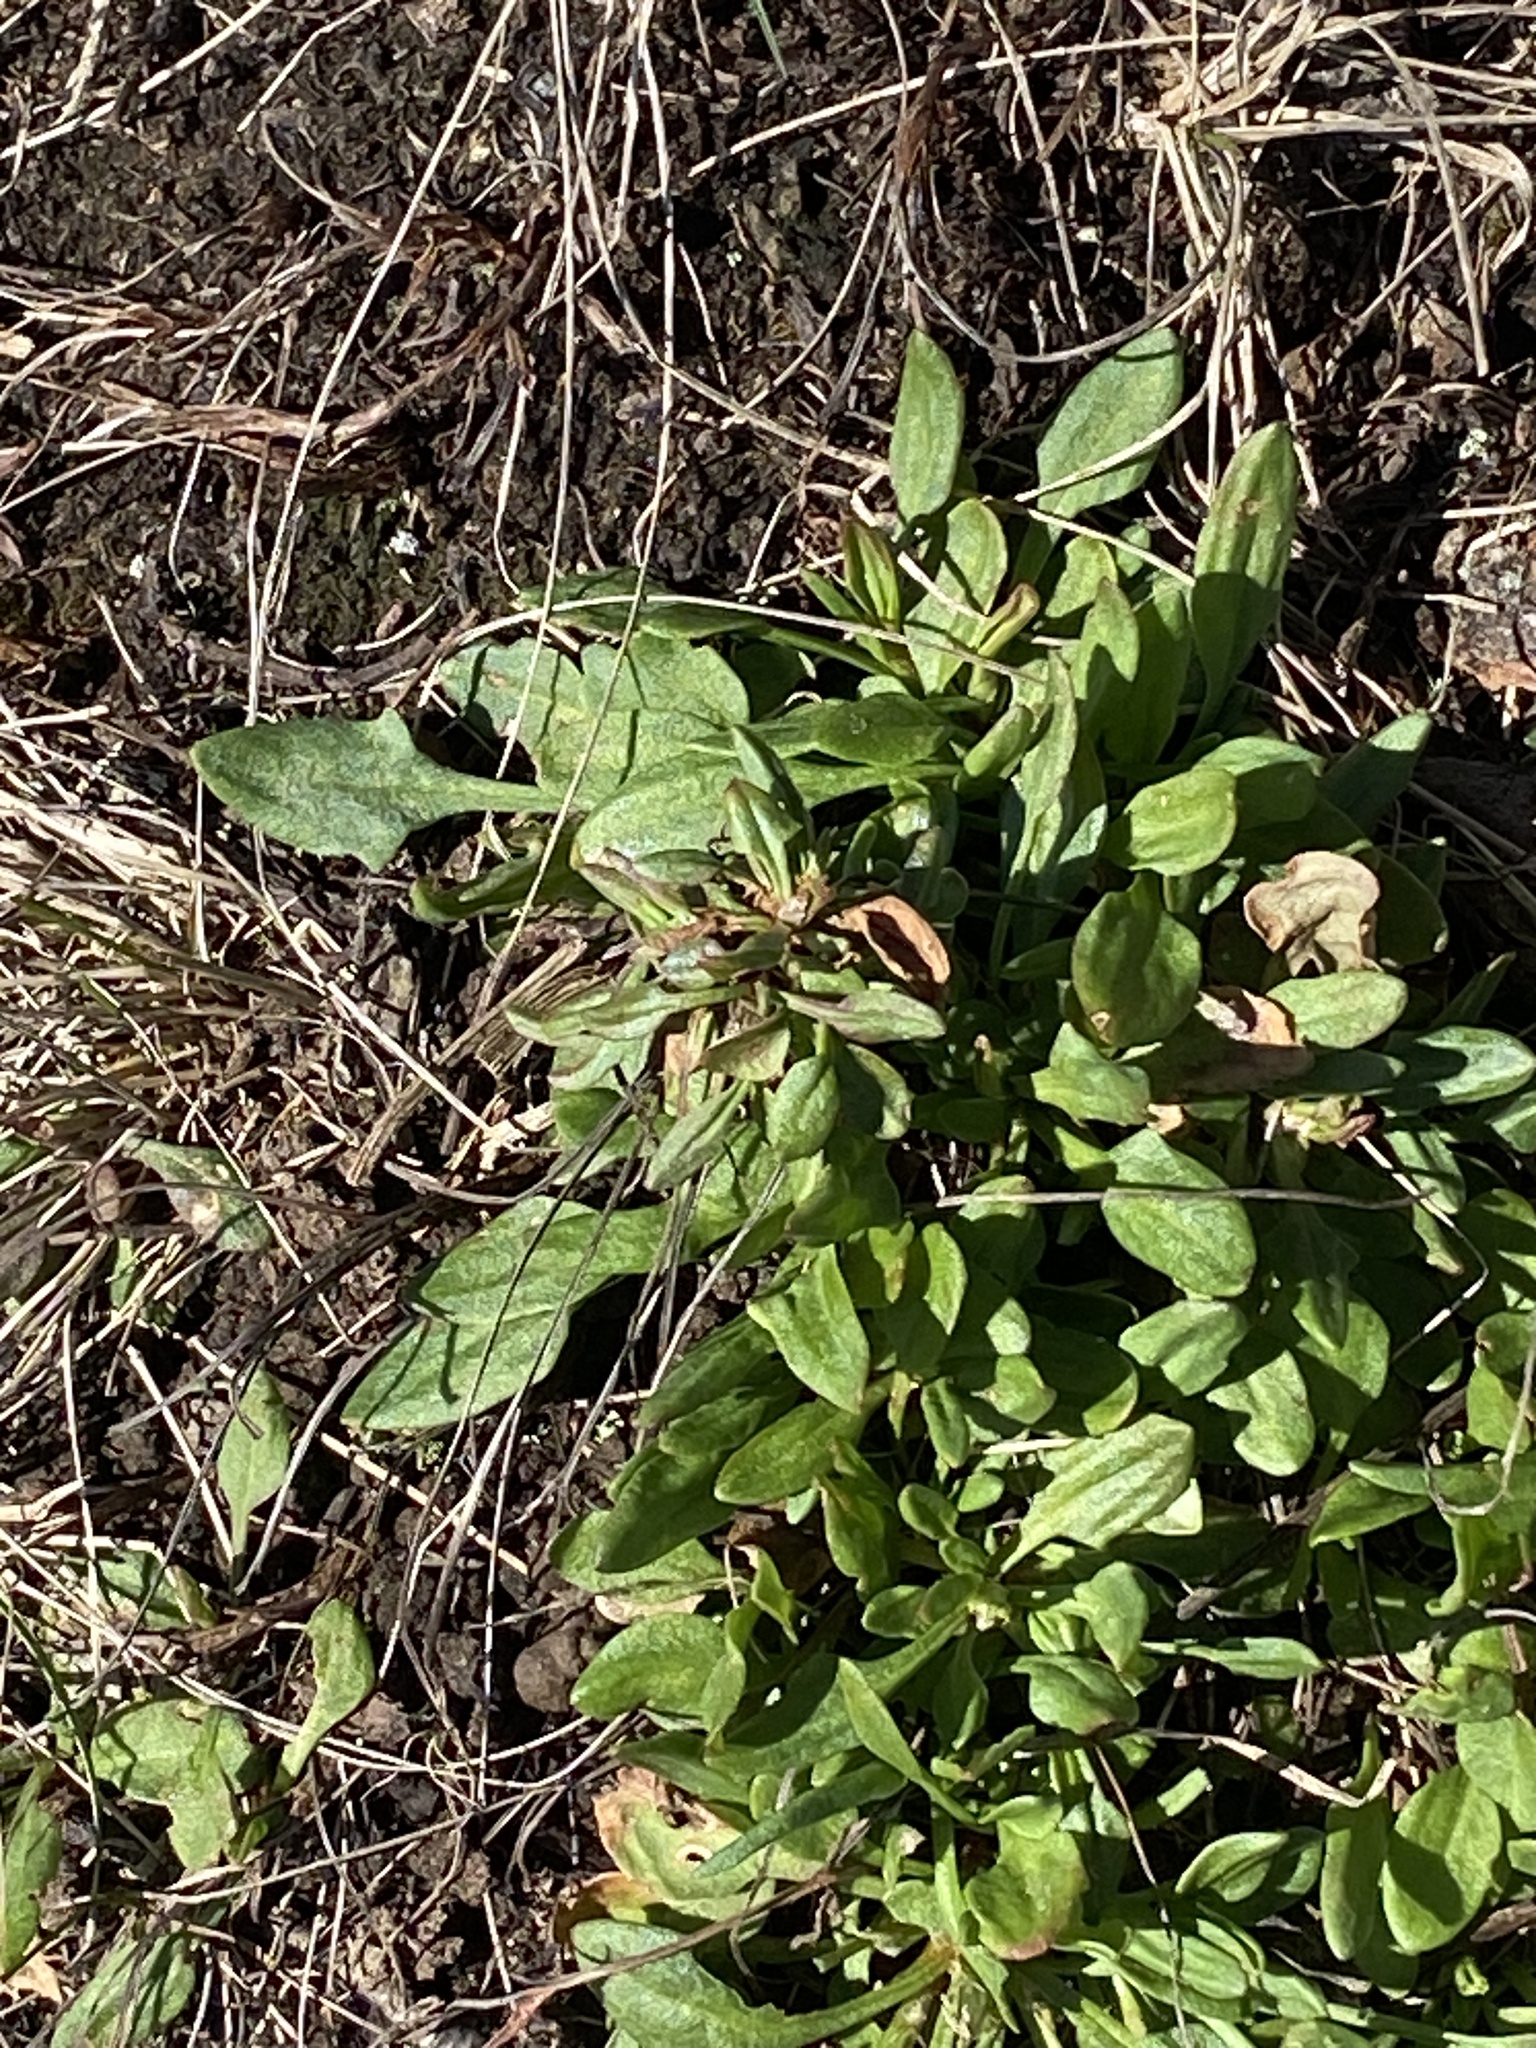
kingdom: Plantae
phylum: Tracheophyta
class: Magnoliopsida
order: Caryophyllales
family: Polygonaceae
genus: Rumex
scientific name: Rumex acetosella
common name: Common sheep sorrel
